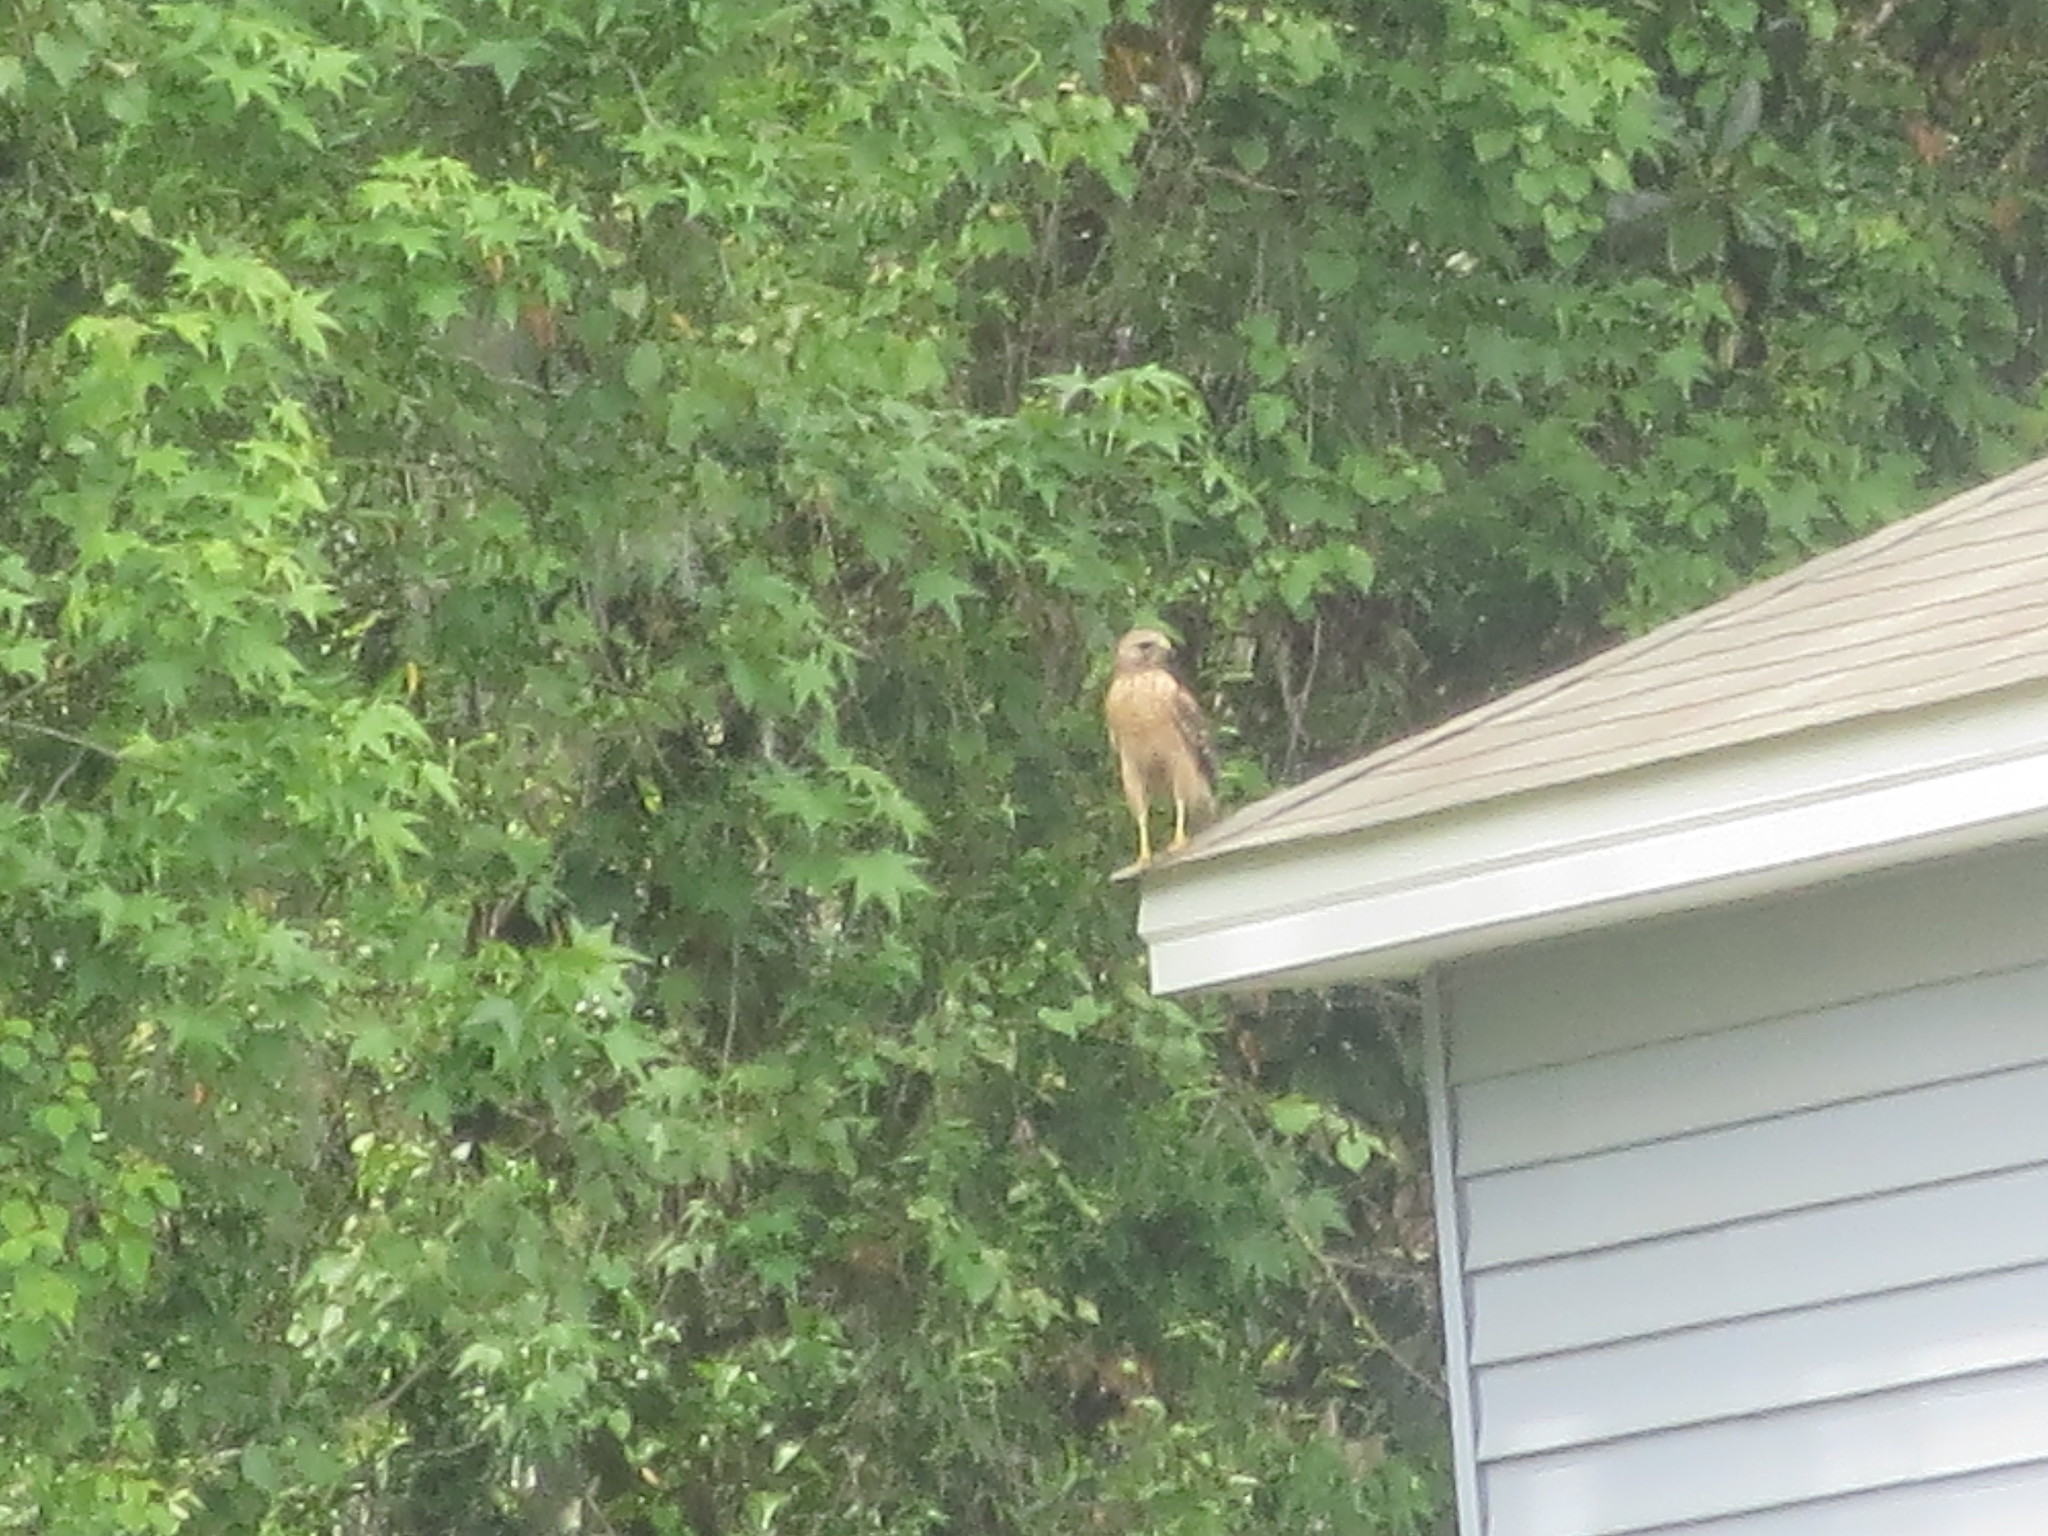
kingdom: Animalia
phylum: Chordata
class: Aves
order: Accipitriformes
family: Accipitridae
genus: Buteo
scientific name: Buteo lineatus
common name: Red-shouldered hawk
